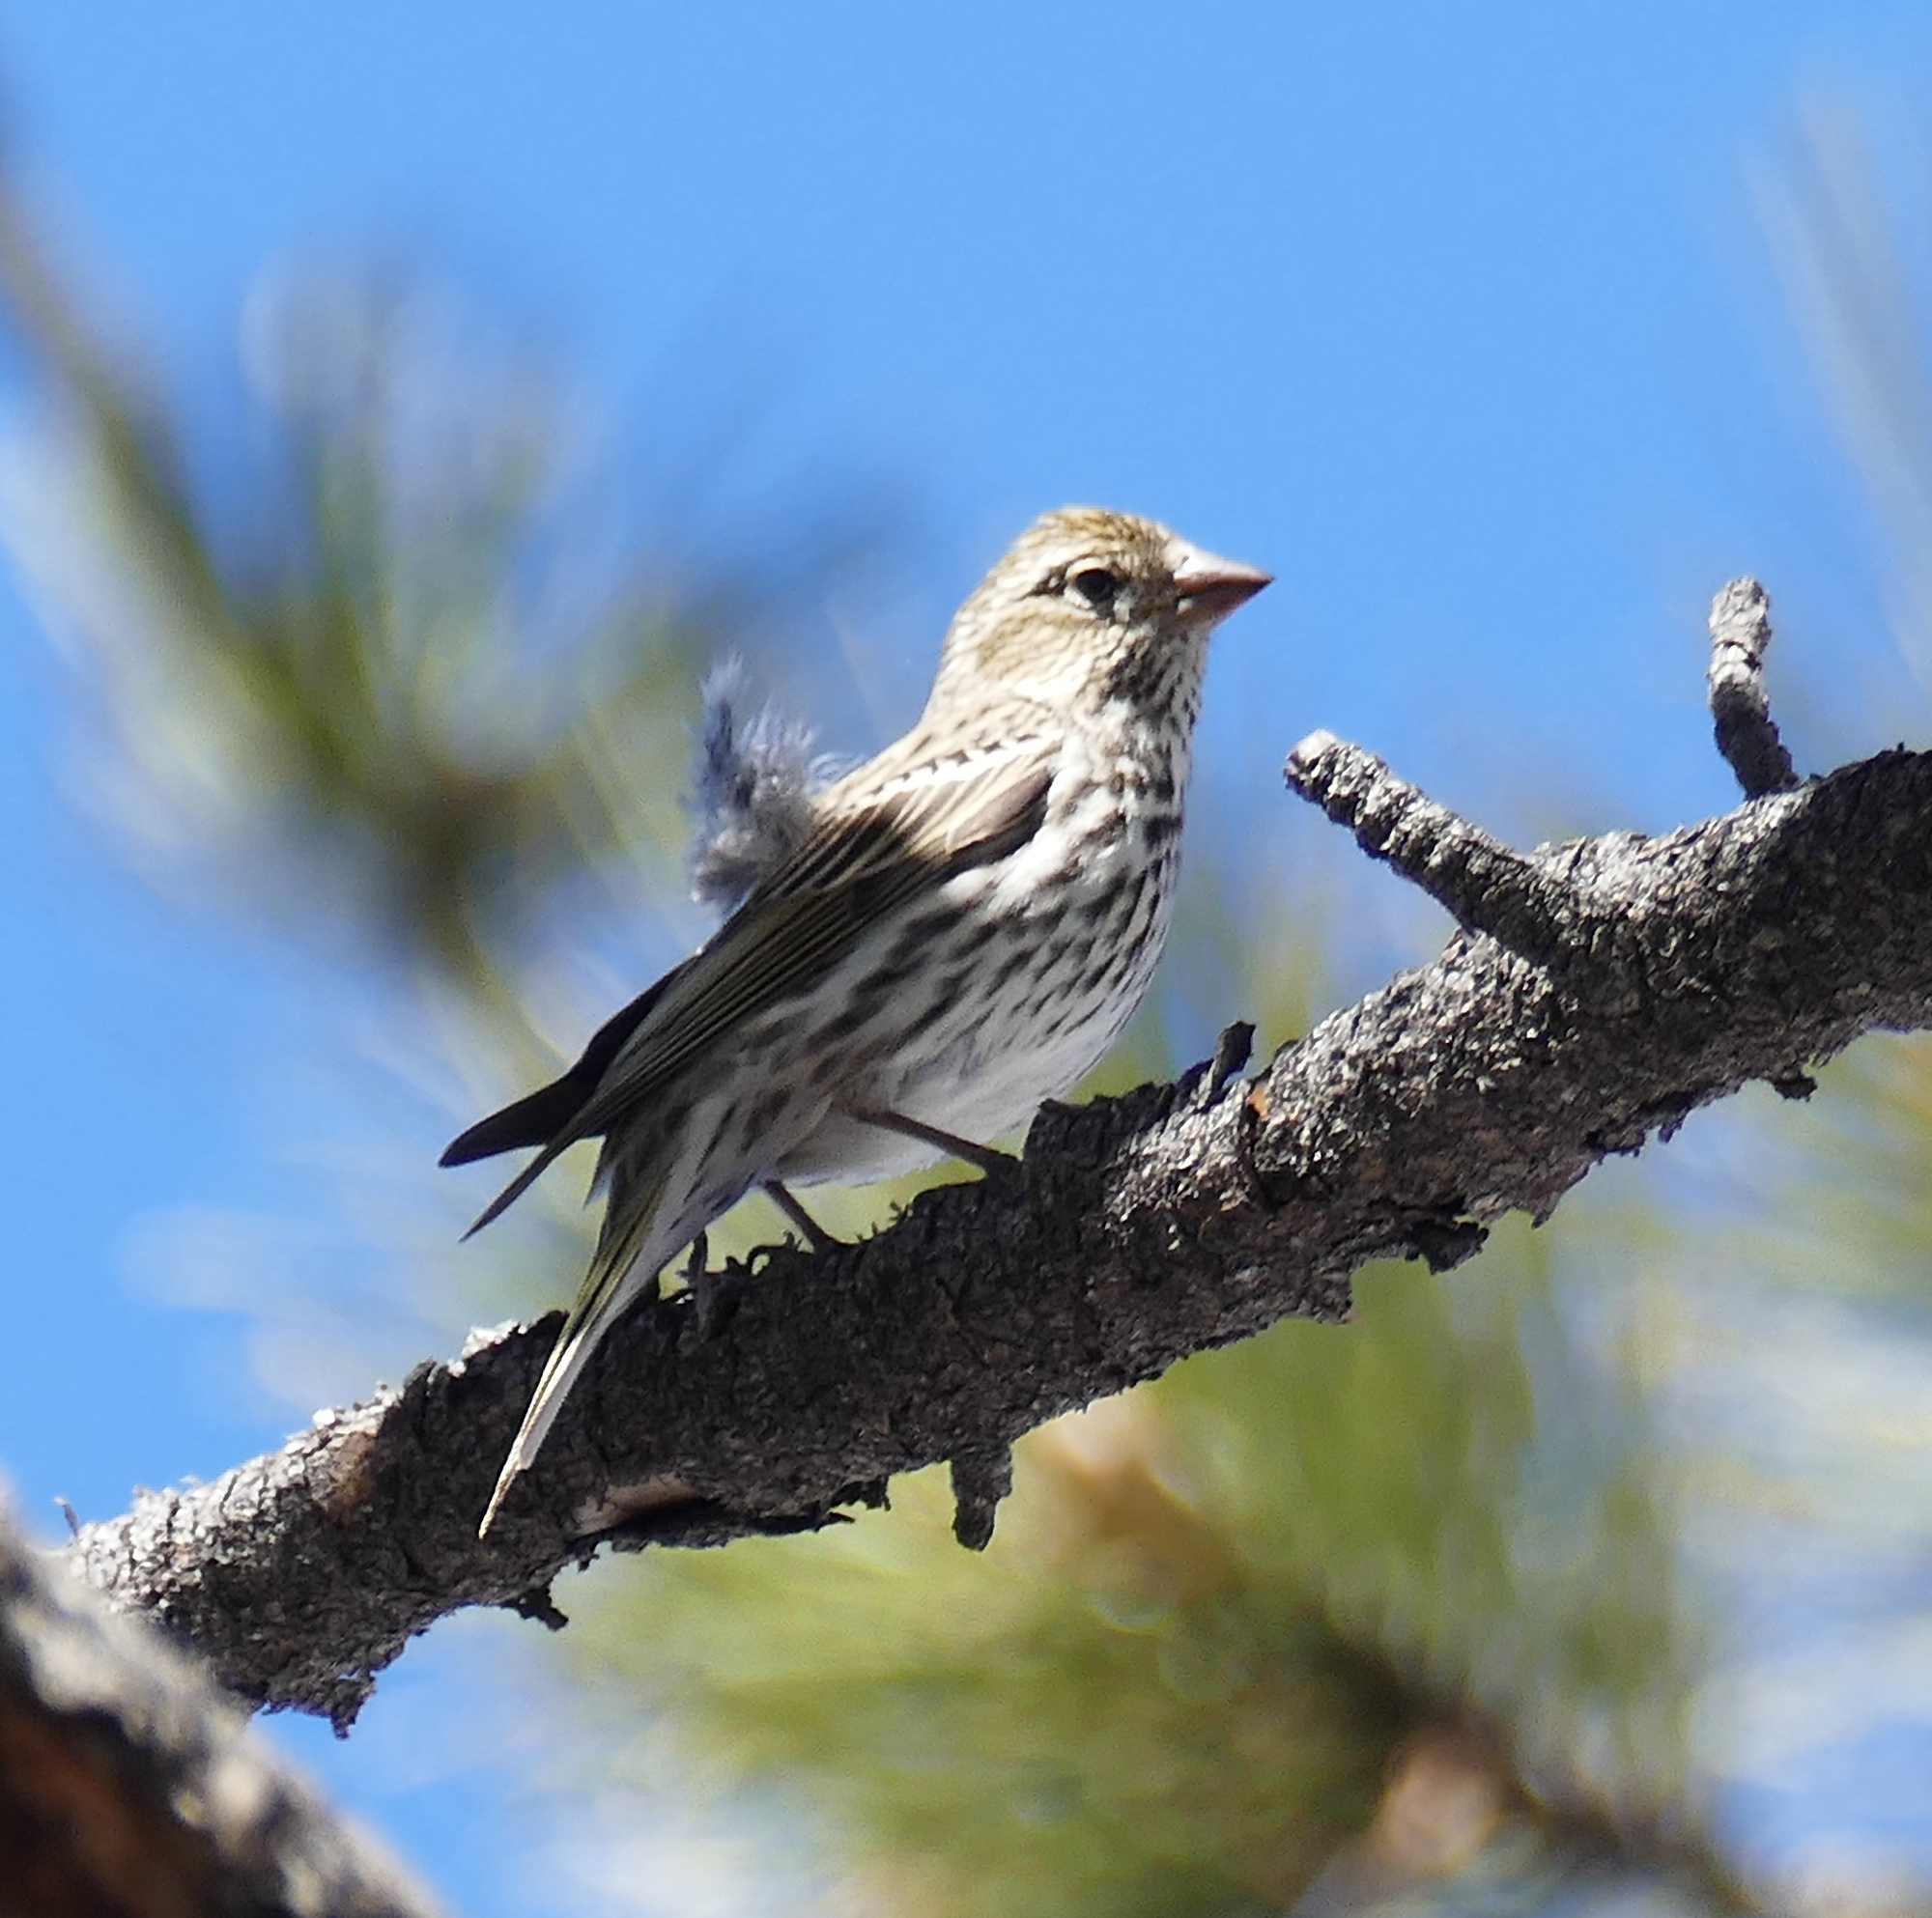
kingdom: Animalia
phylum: Chordata
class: Aves
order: Passeriformes
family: Fringillidae
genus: Haemorhous
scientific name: Haemorhous cassinii
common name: Cassin's finch
